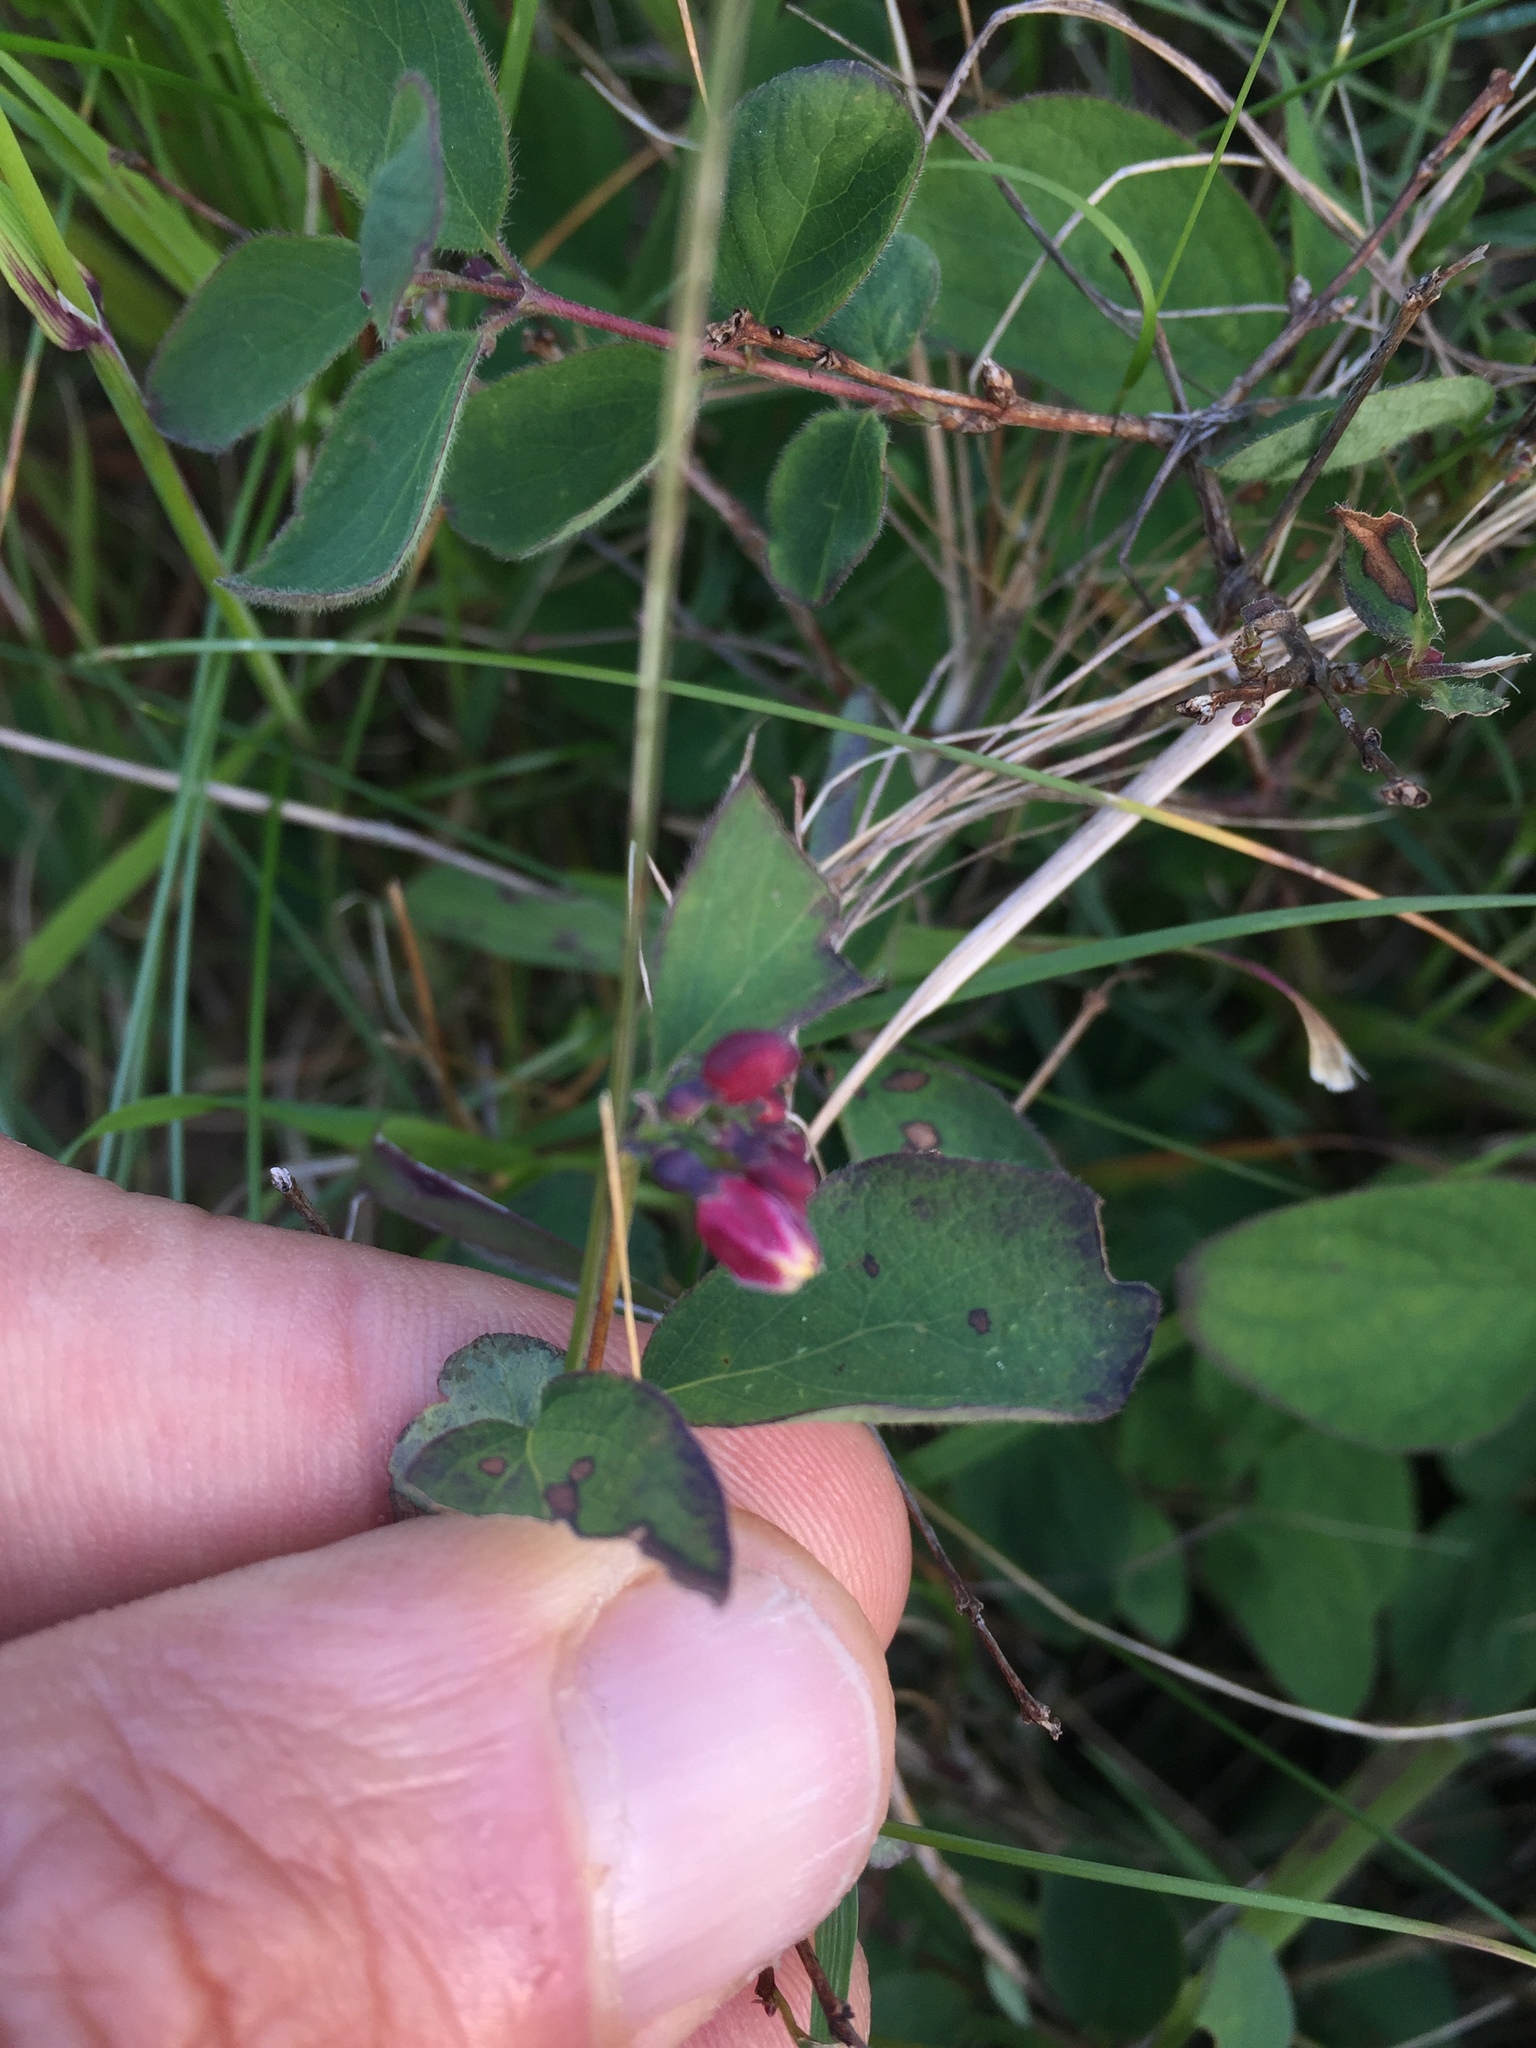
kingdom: Plantae
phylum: Tracheophyta
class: Magnoliopsida
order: Dipsacales
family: Caprifoliaceae
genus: Symphoricarpos
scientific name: Symphoricarpos mollis
